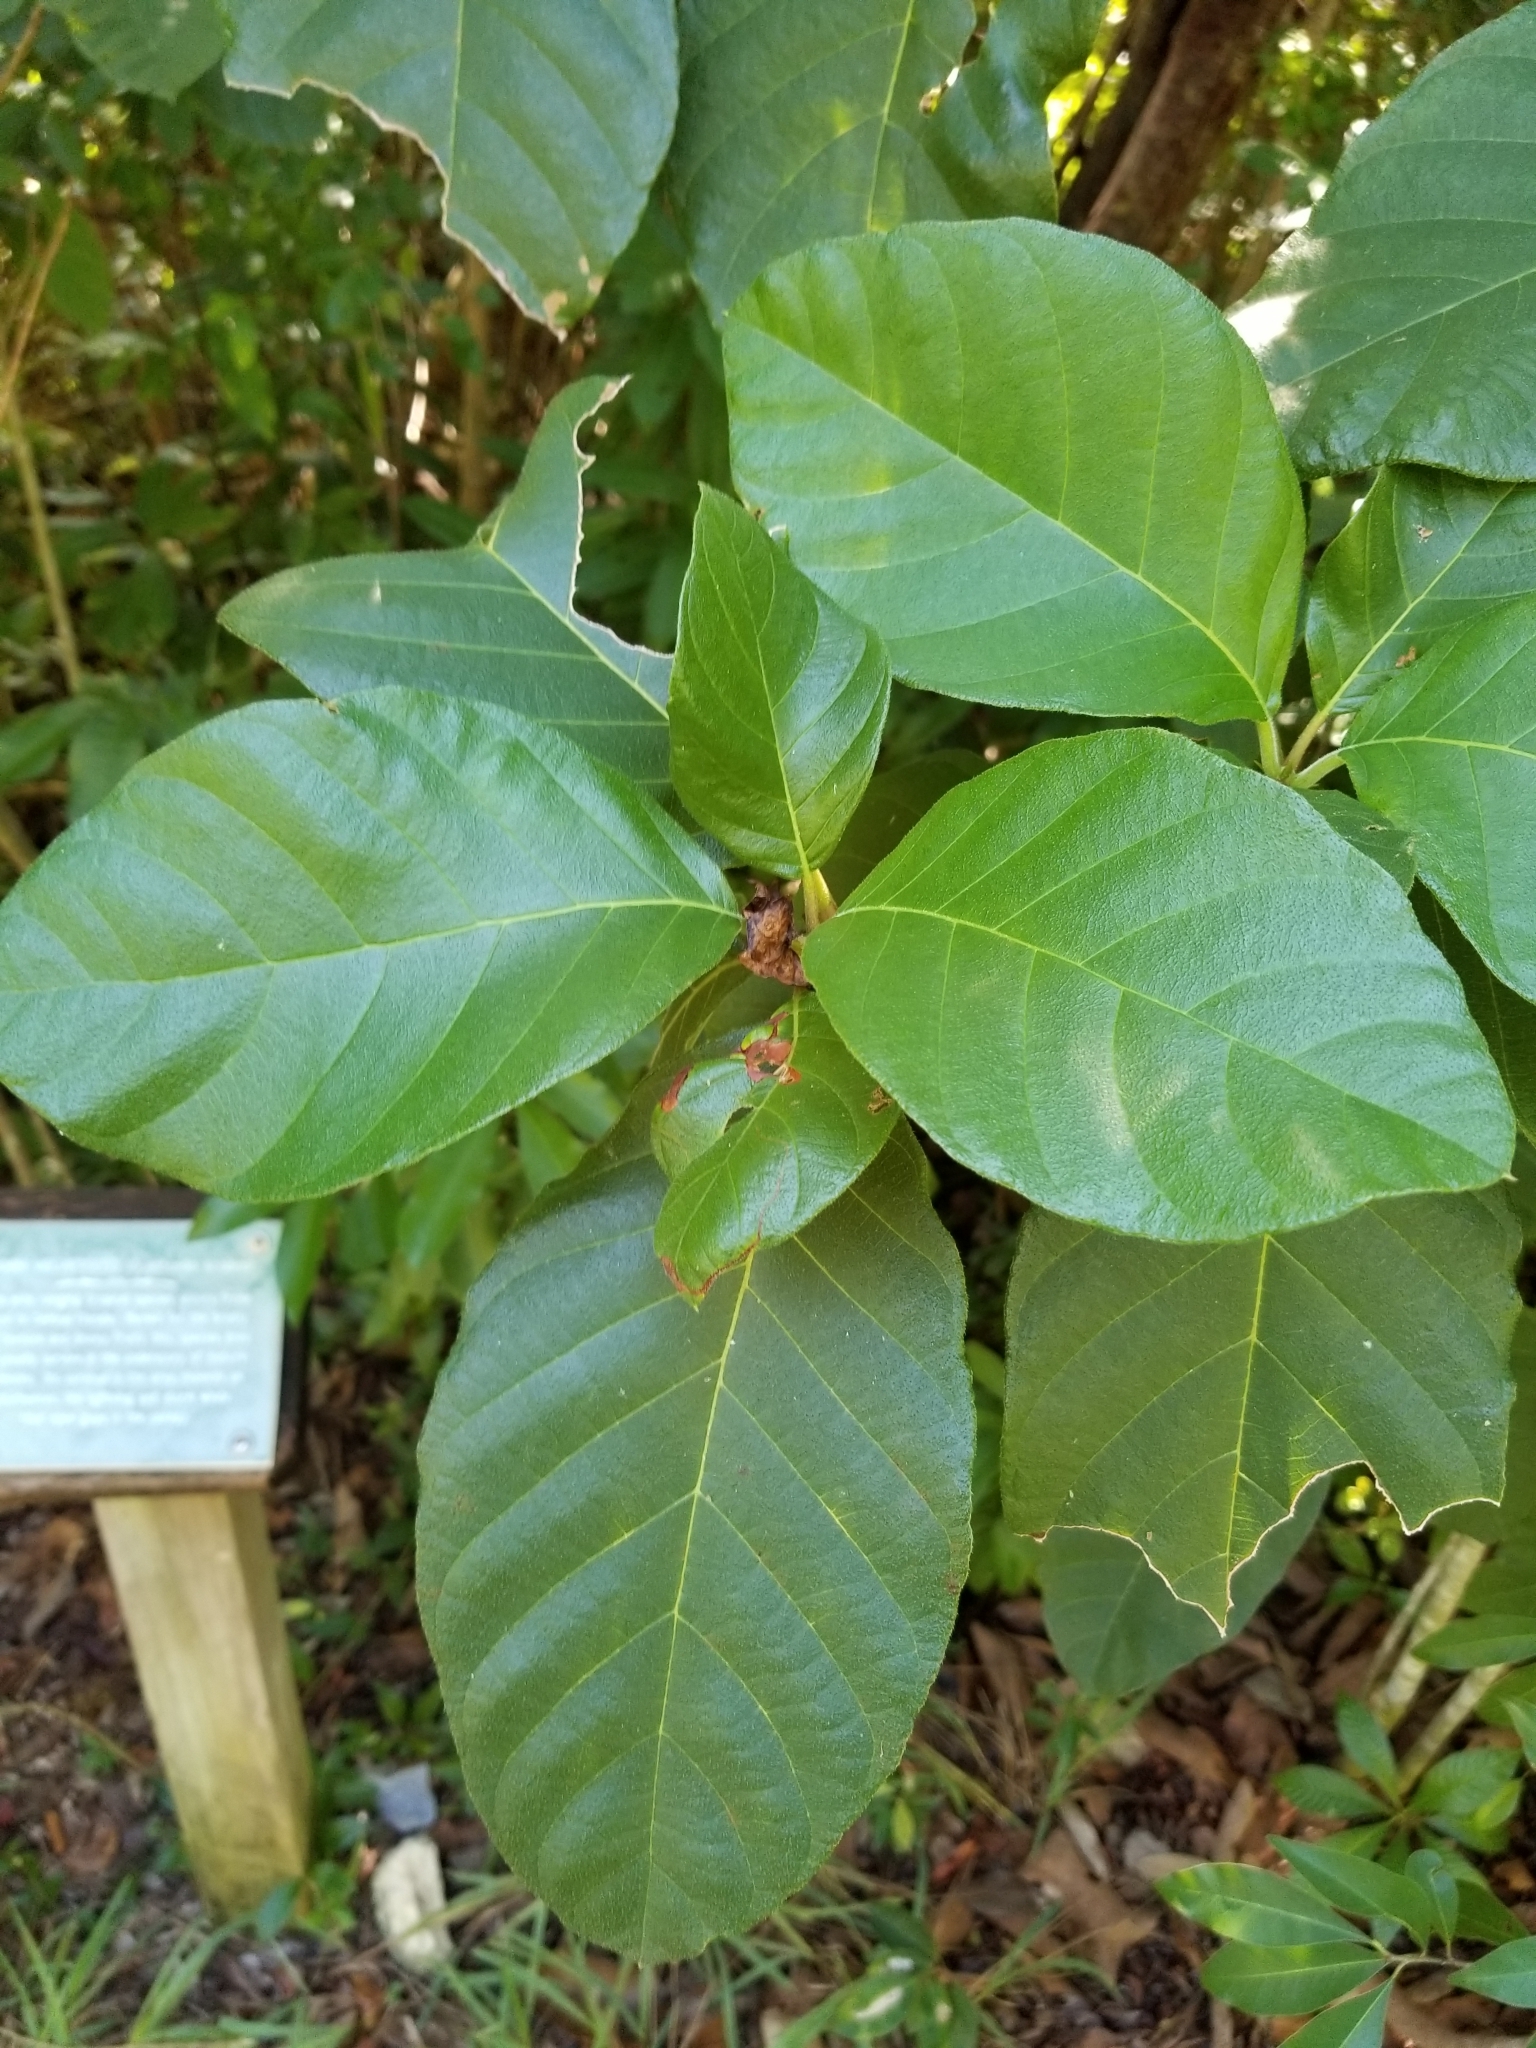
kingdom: Plantae
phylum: Tracheophyta
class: Magnoliopsida
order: Gentianales
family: Rubiaceae
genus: Guettarda
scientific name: Guettarda scabra
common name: Pigeon bay
